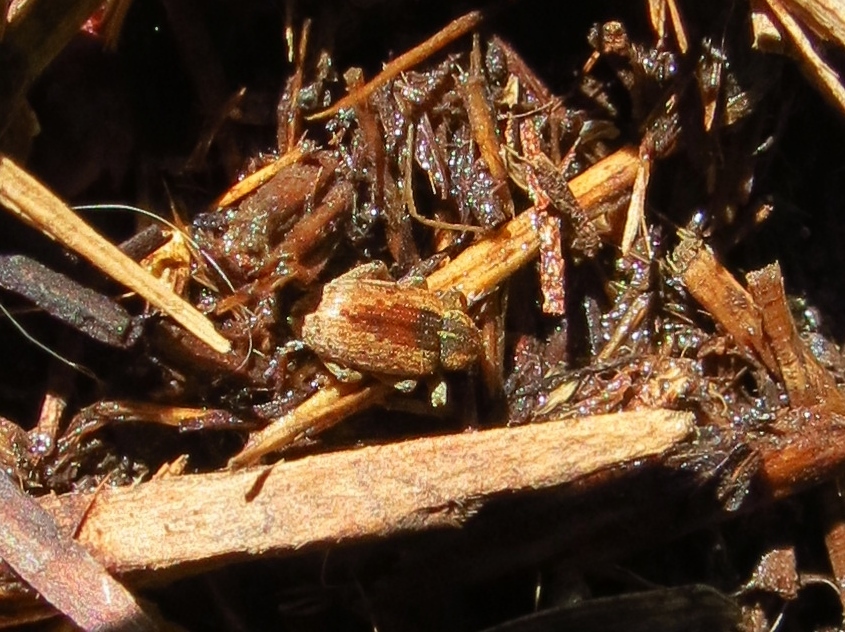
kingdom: Animalia
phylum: Arthropoda
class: Insecta
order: Coleoptera
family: Curculionidae
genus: Hypera
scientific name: Hypera postica
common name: Weevil
